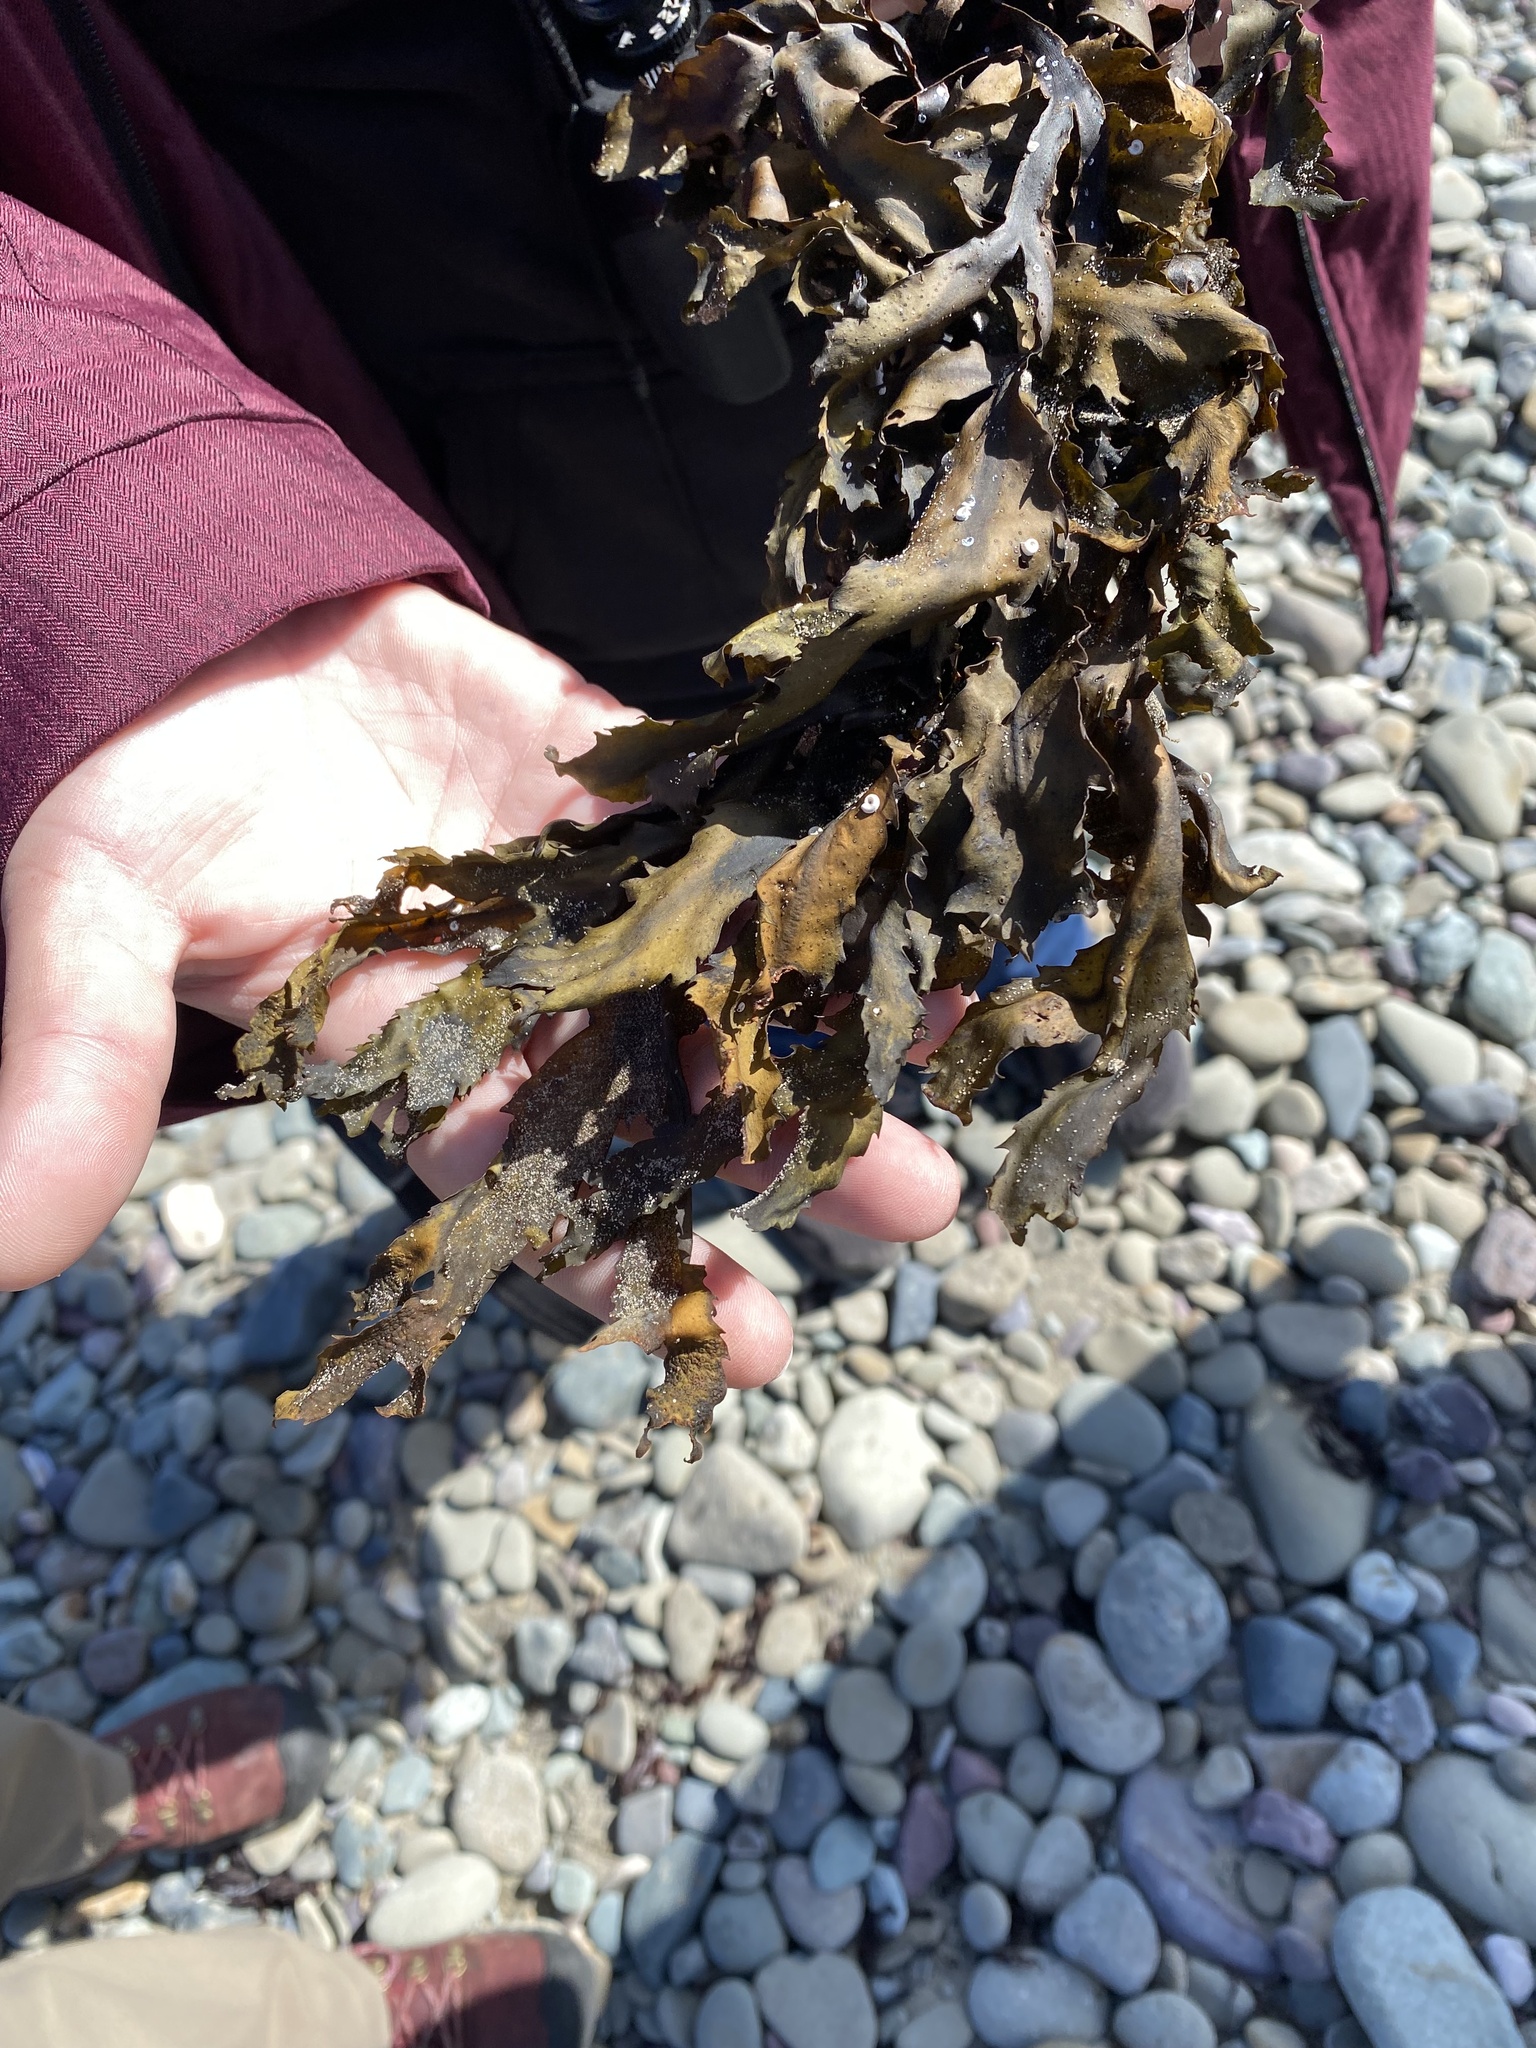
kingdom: Chromista
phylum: Ochrophyta
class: Phaeophyceae
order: Fucales
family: Fucaceae
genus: Fucus
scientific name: Fucus serratus
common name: Toothed wrack
